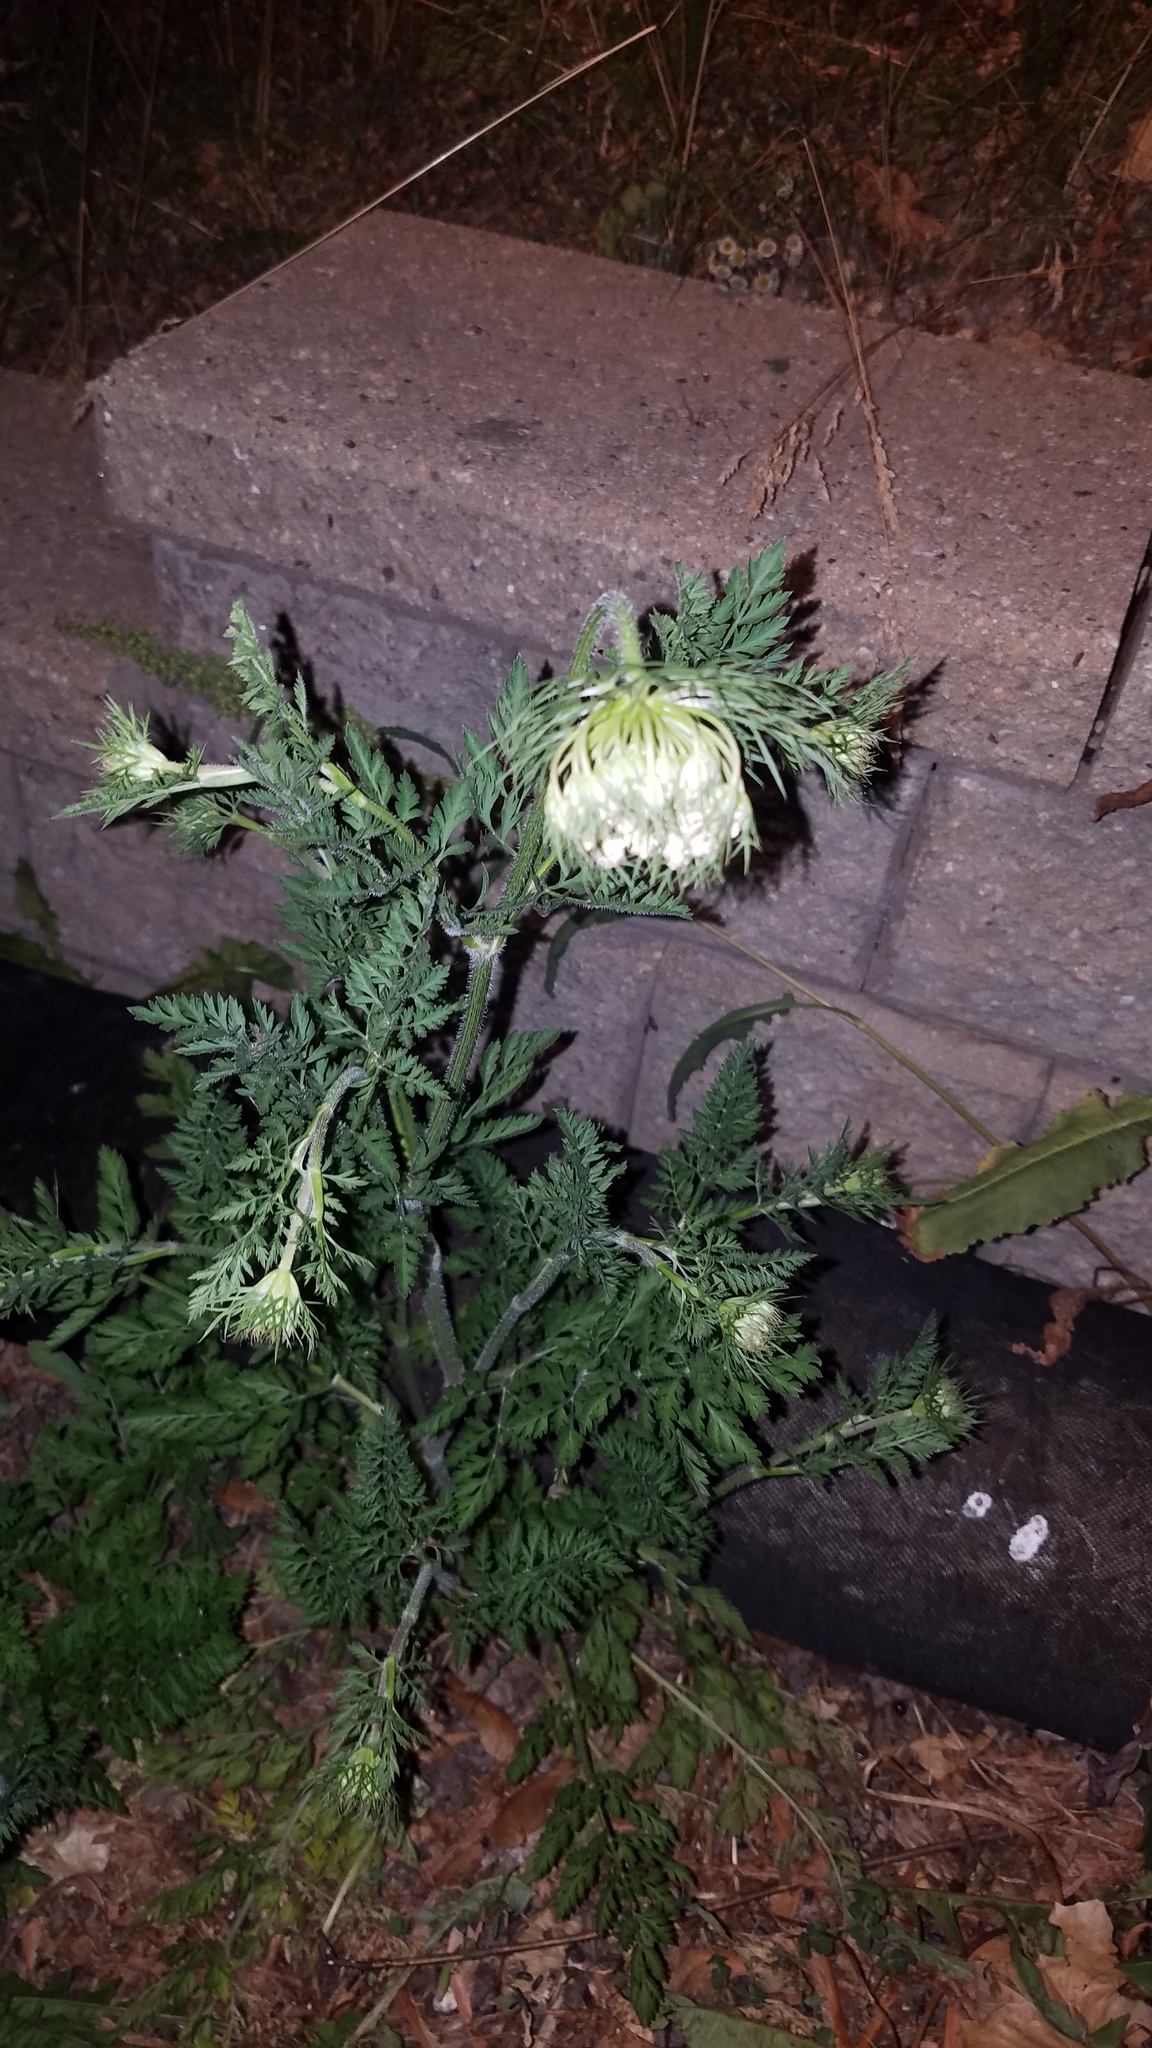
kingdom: Plantae
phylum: Tracheophyta
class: Magnoliopsida
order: Apiales
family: Apiaceae
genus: Daucus
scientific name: Daucus carota
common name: Wild carrot
